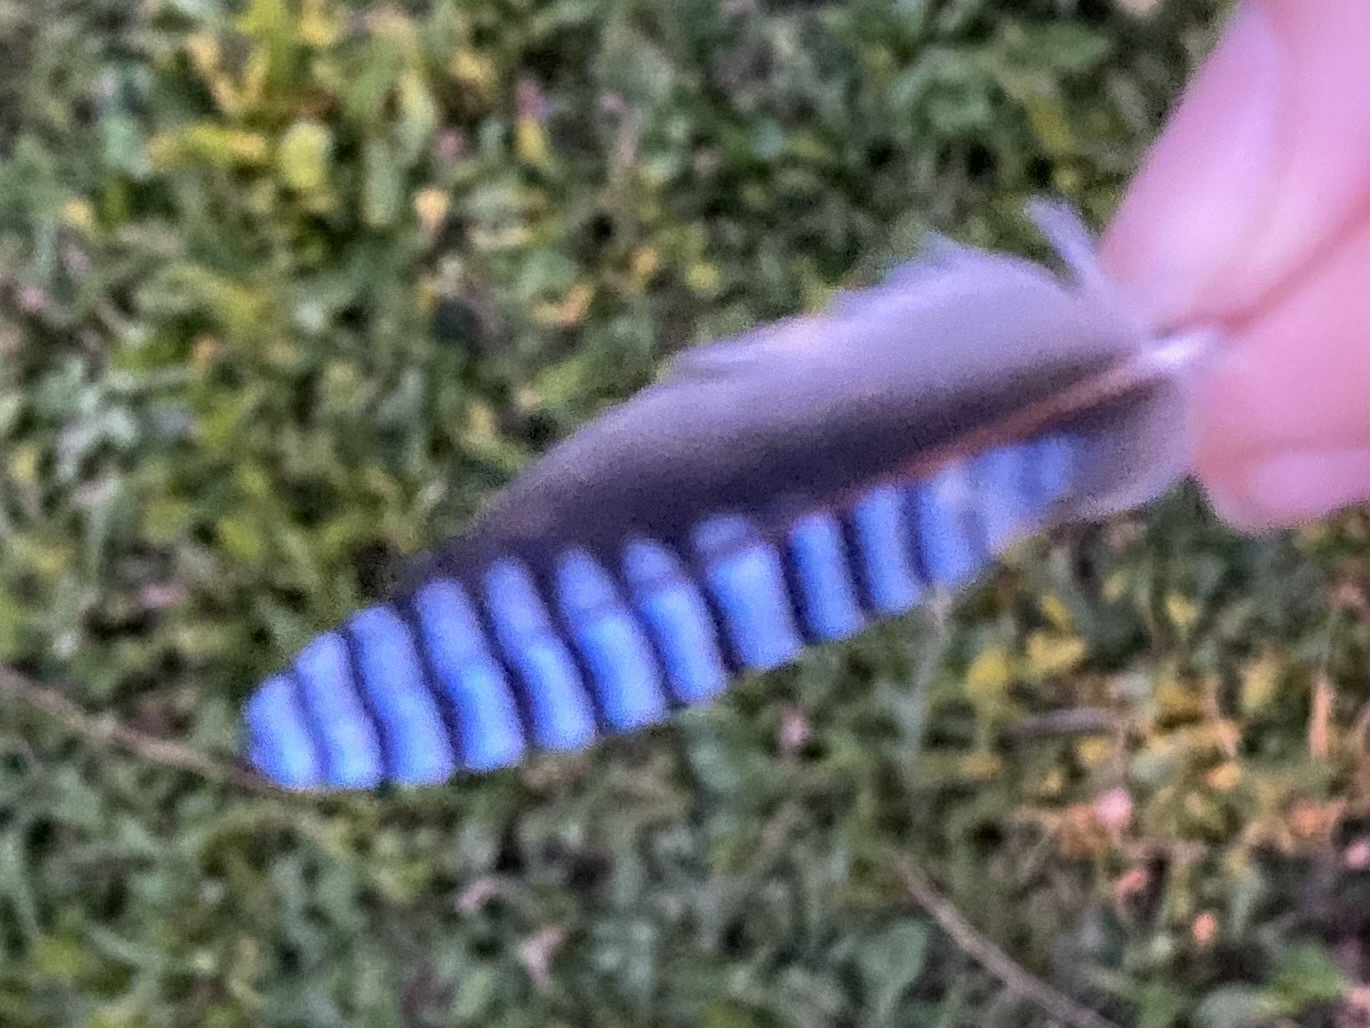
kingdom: Animalia
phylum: Chordata
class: Aves
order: Passeriformes
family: Corvidae
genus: Garrulus
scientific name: Garrulus glandarius
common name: Eurasian jay
